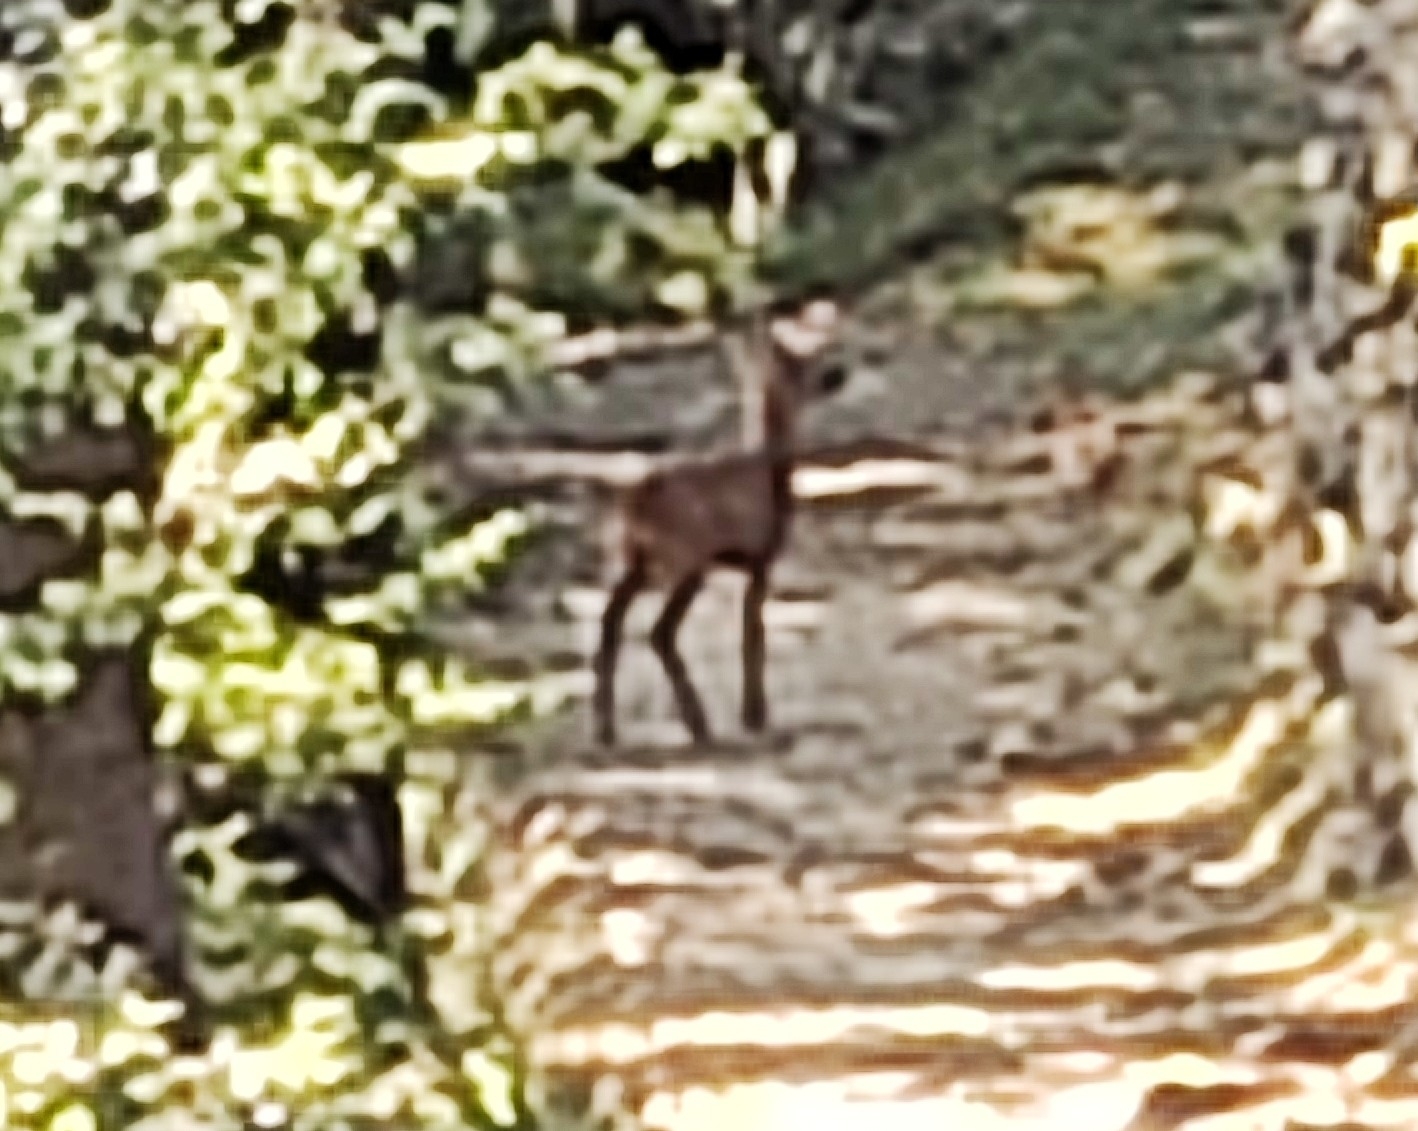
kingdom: Animalia
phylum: Chordata
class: Mammalia
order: Artiodactyla
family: Cervidae
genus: Capreolus
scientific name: Capreolus capreolus
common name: Western roe deer
